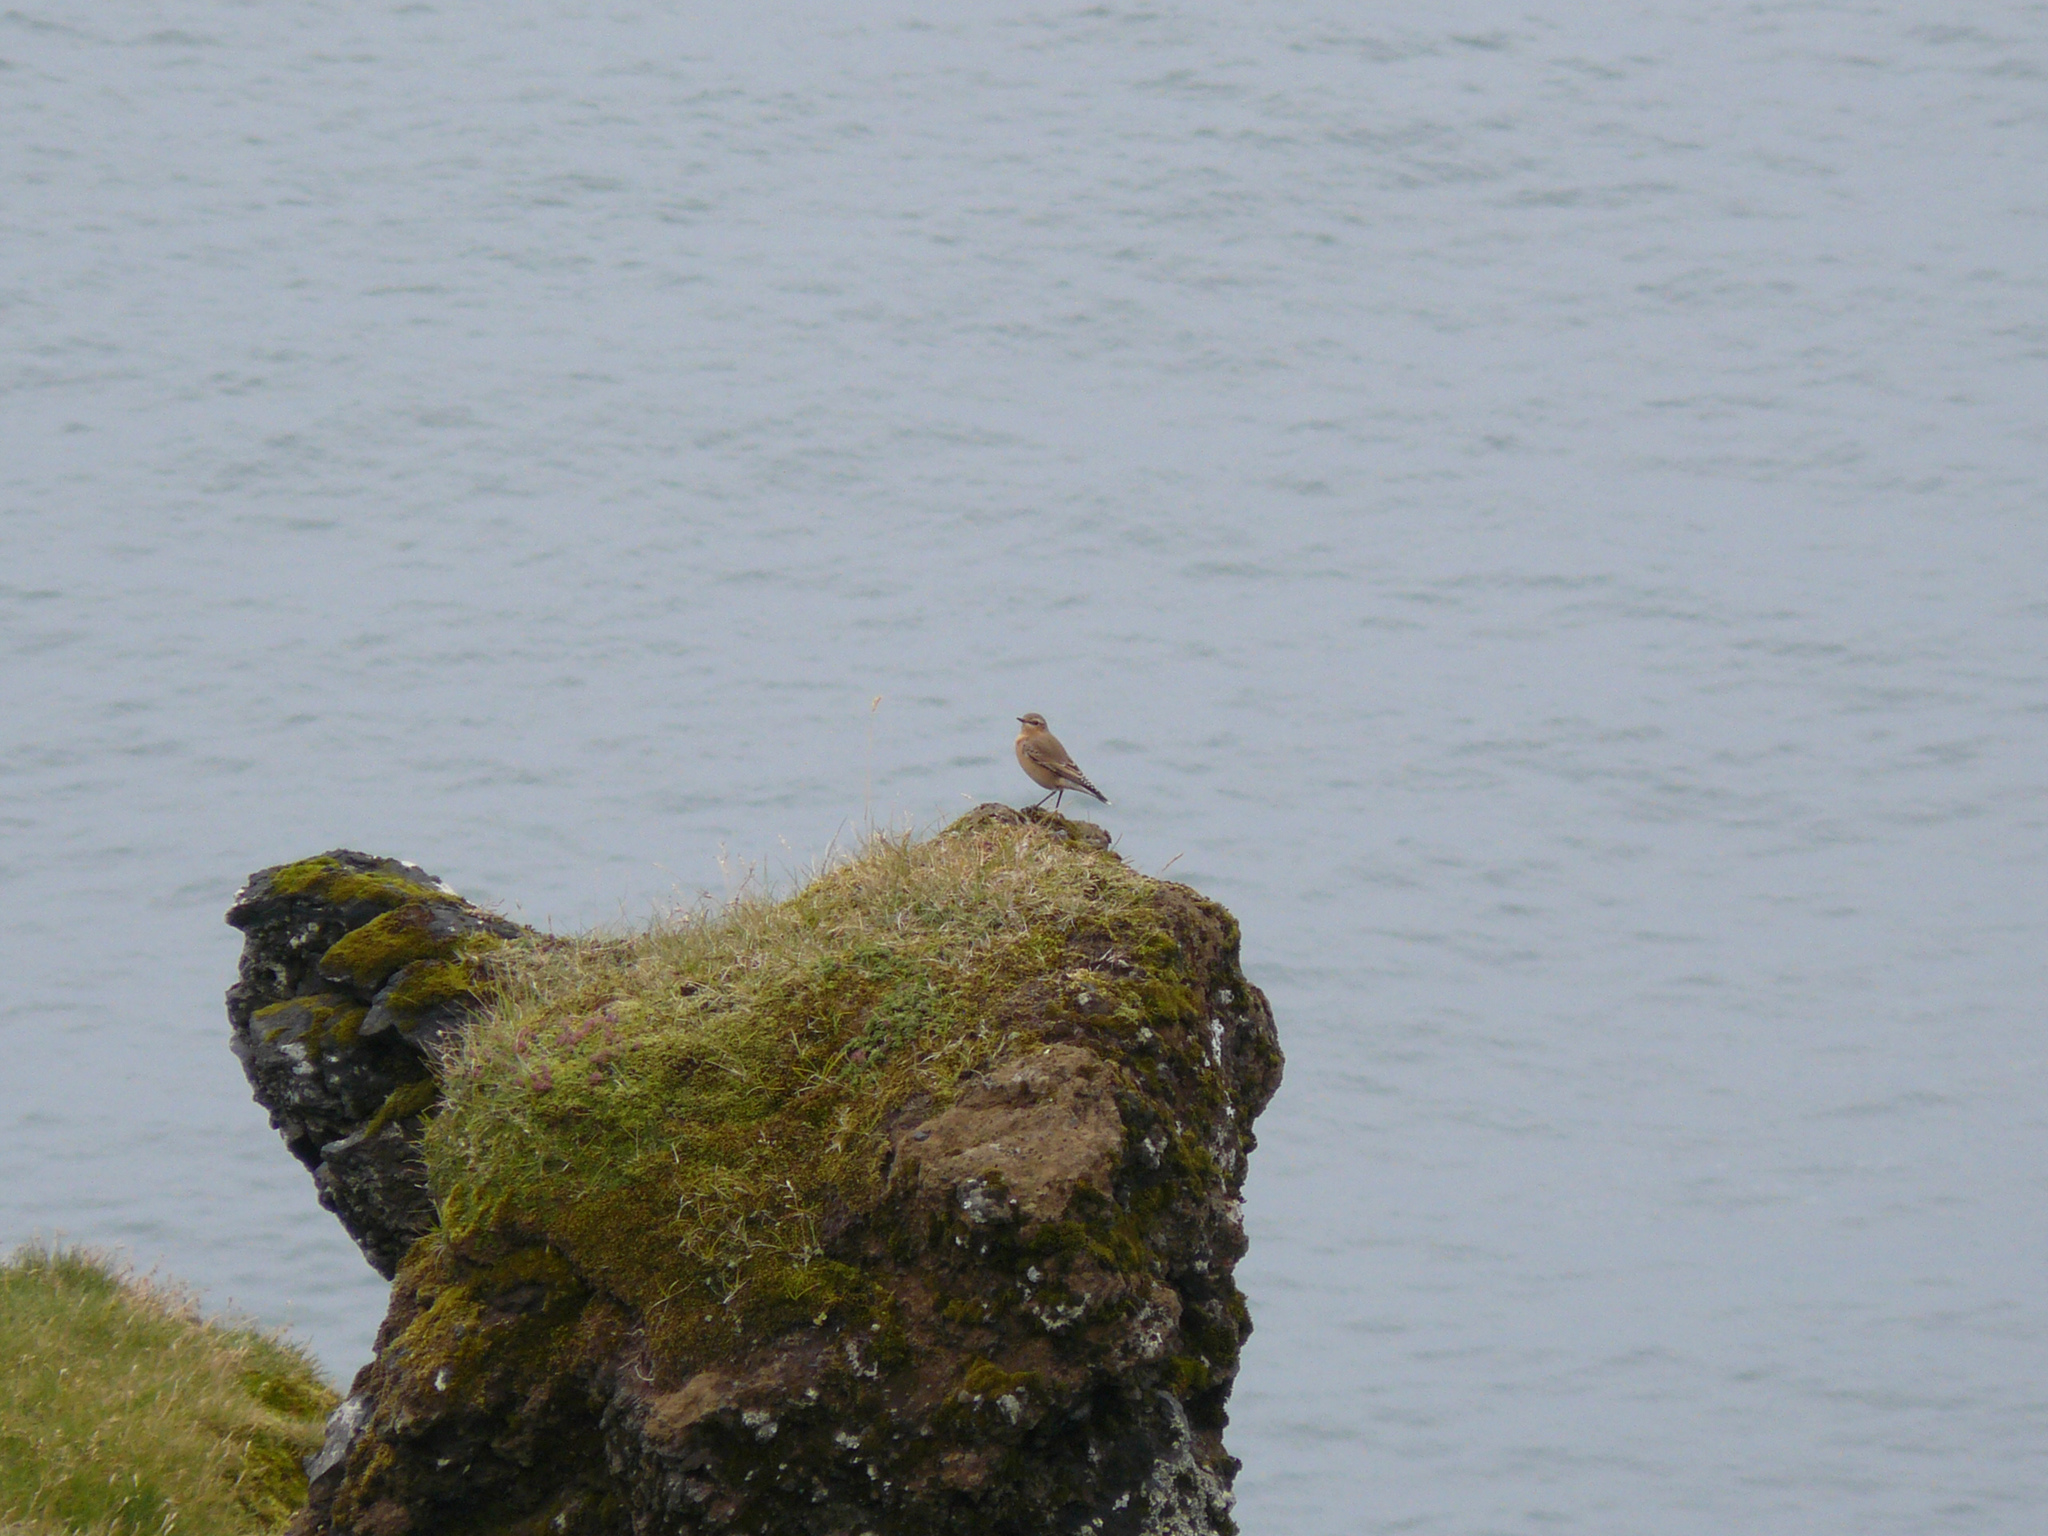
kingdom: Animalia
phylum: Chordata
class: Aves
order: Passeriformes
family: Muscicapidae
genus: Oenanthe
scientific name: Oenanthe oenanthe
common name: Northern wheatear
